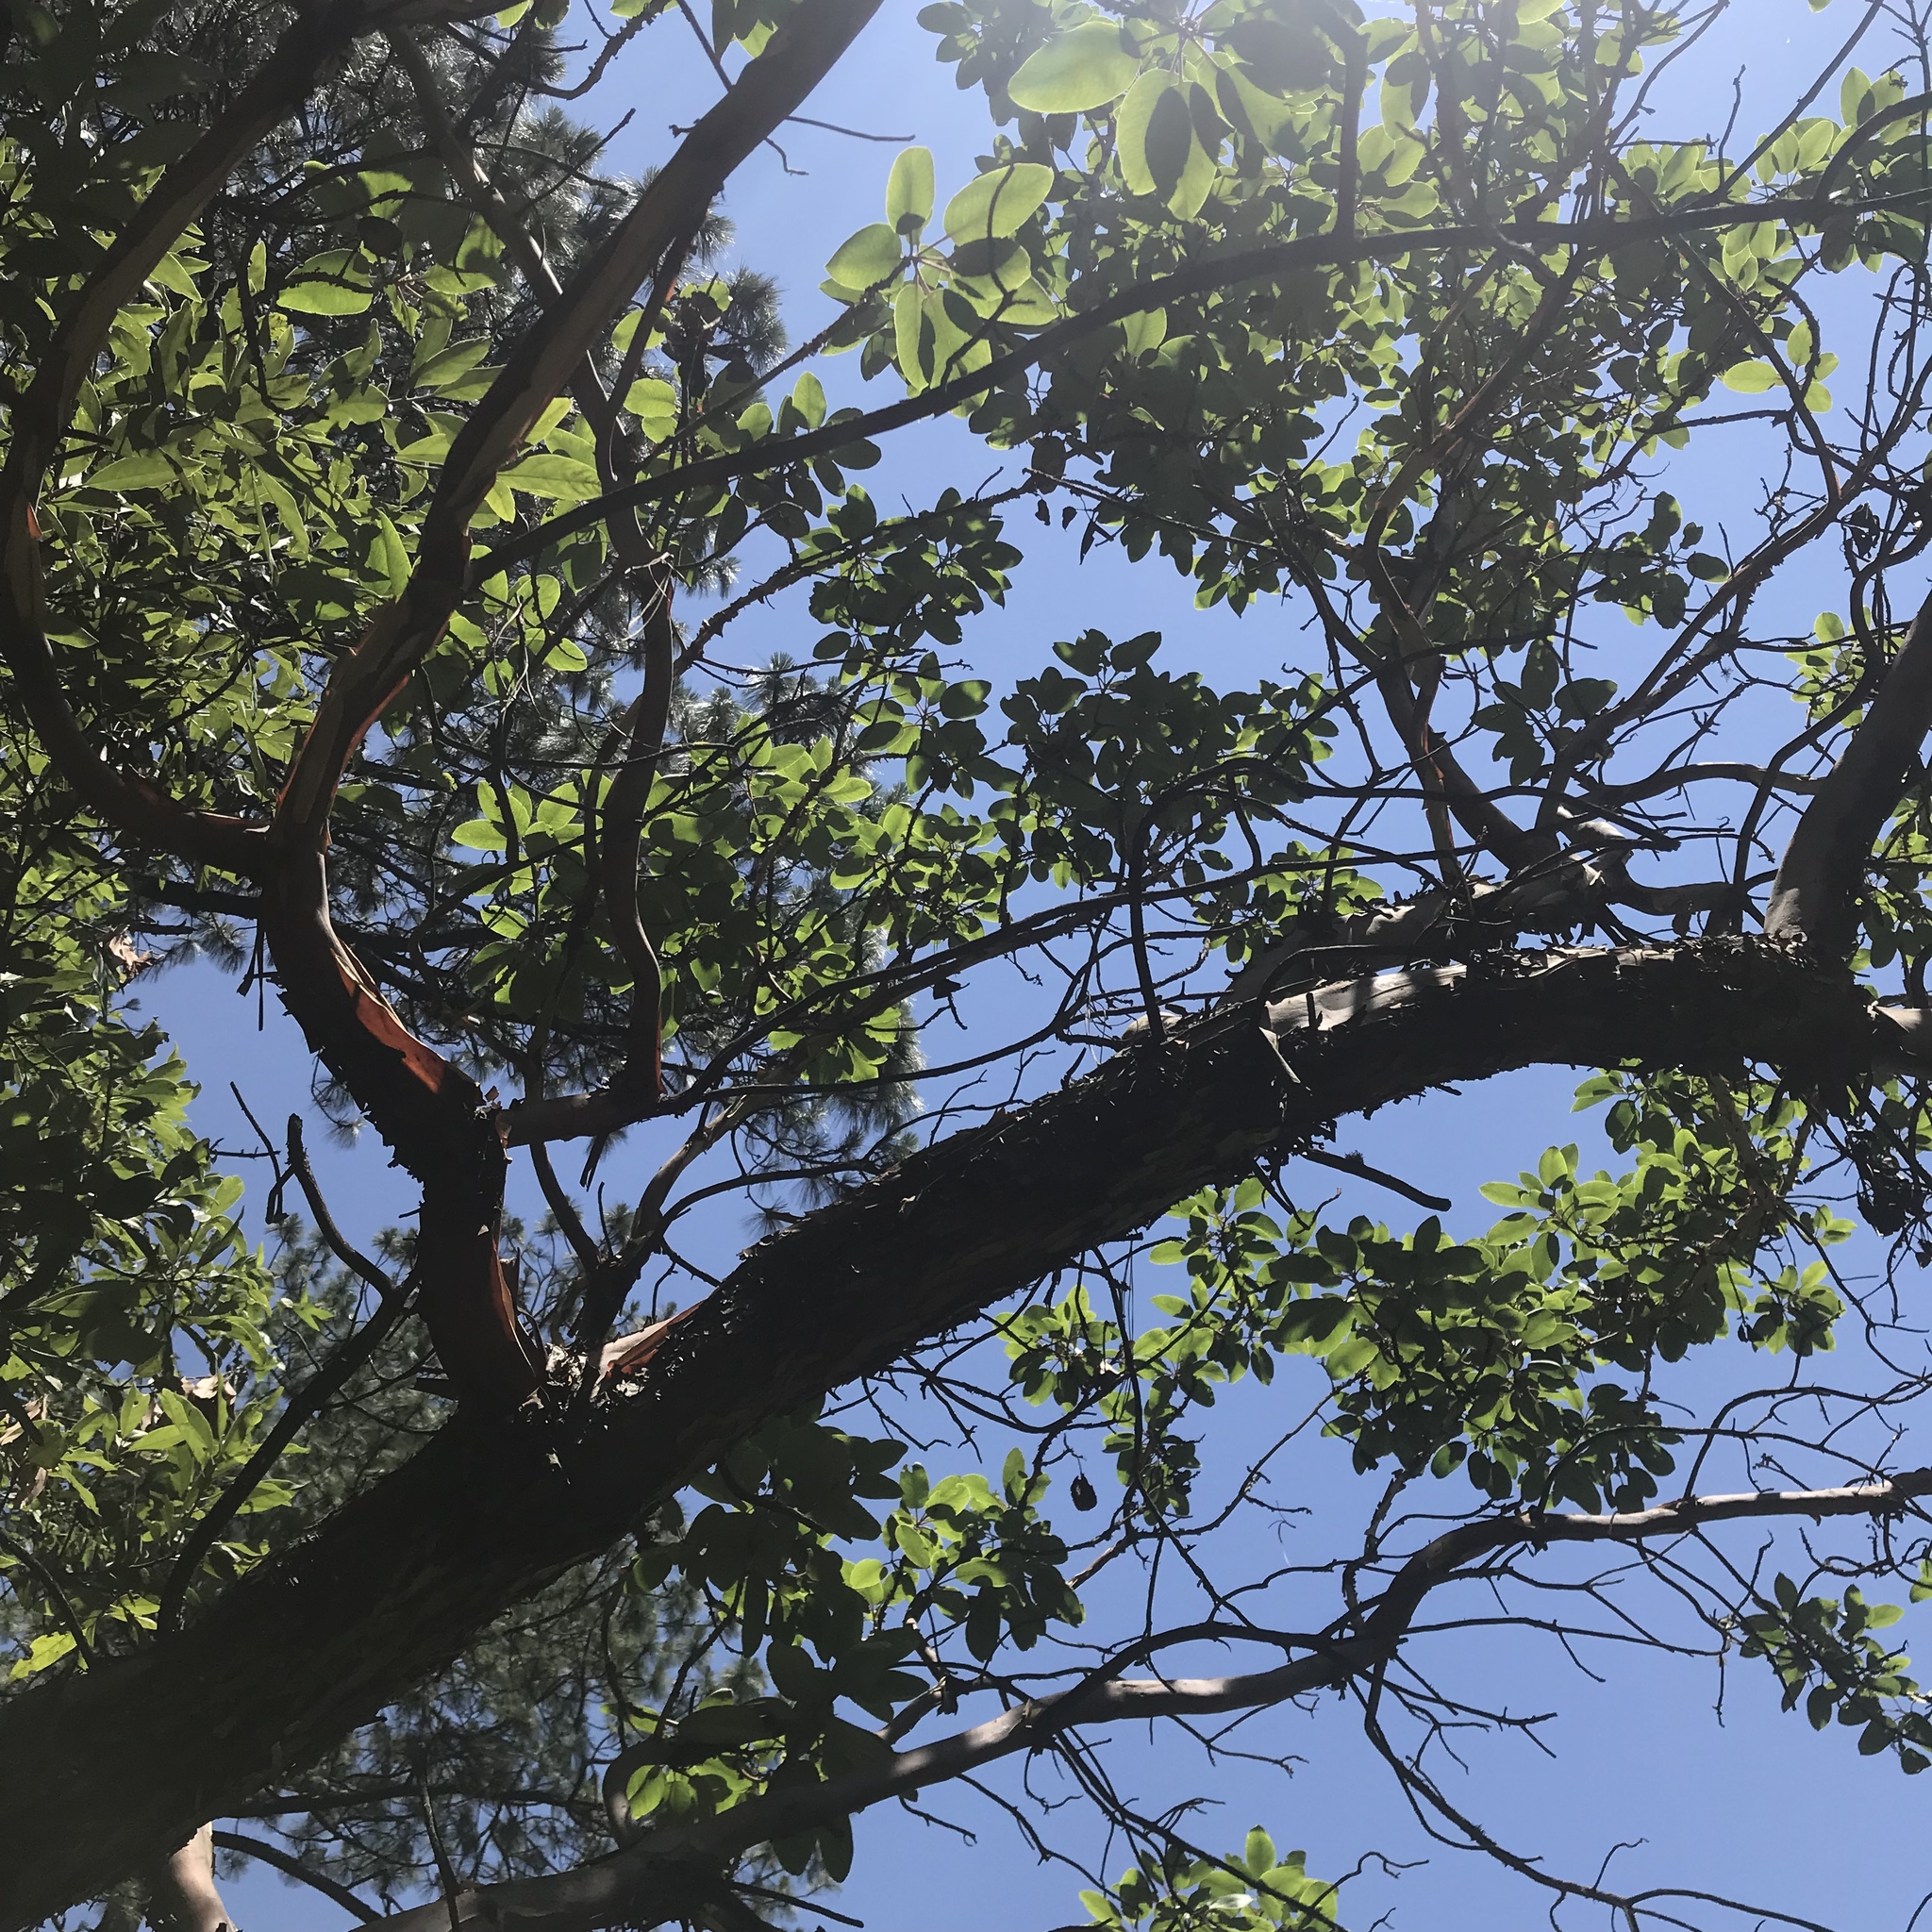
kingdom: Plantae
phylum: Tracheophyta
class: Magnoliopsida
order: Ericales
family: Ericaceae
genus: Arbutus
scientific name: Arbutus xalapensis
